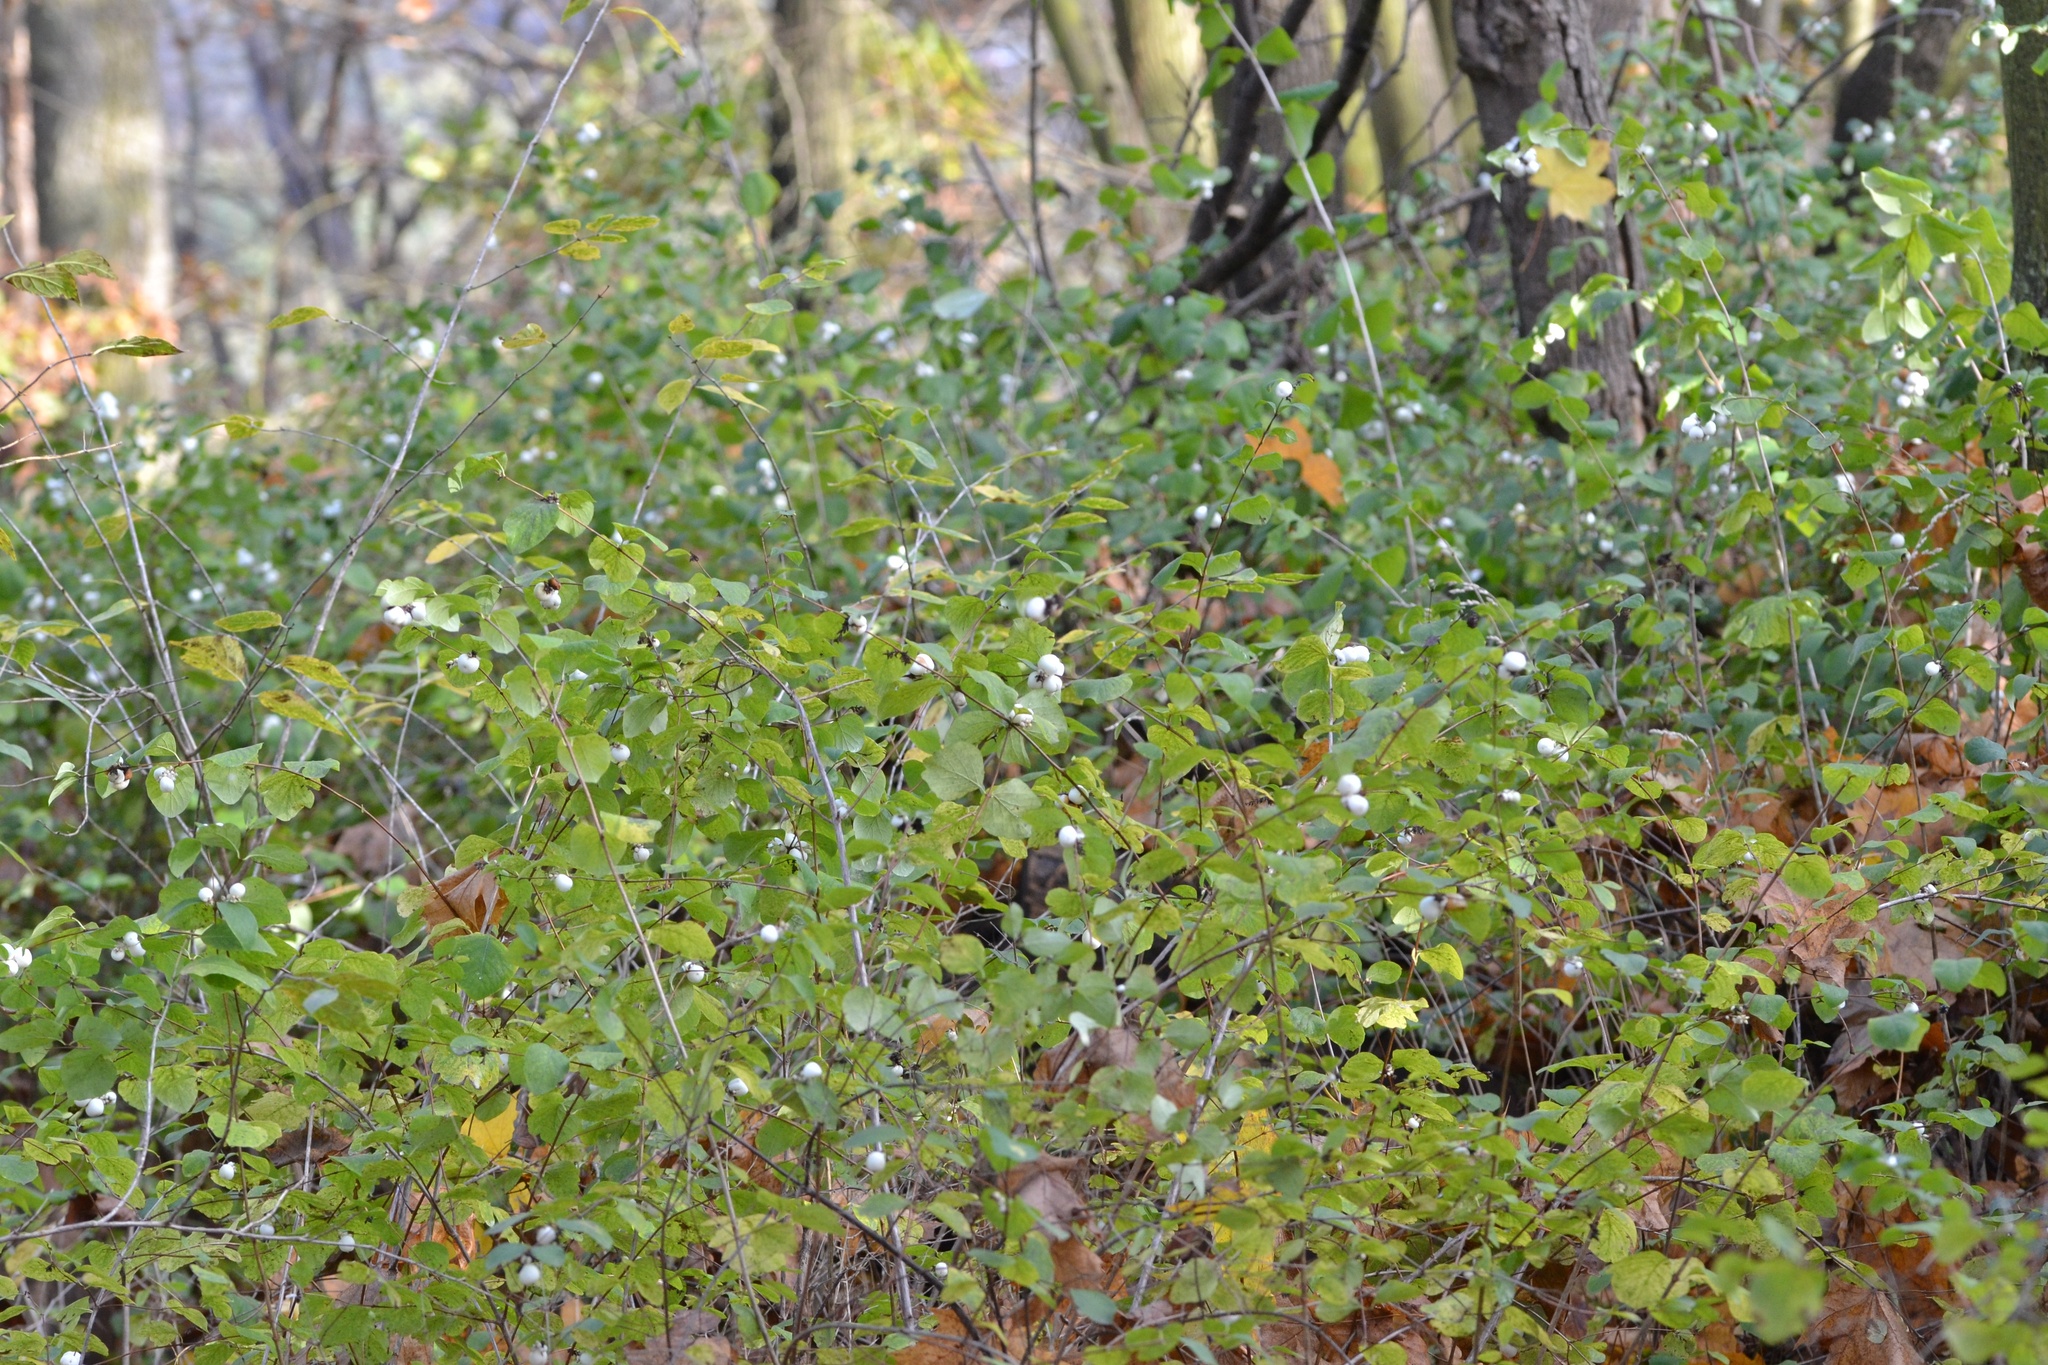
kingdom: Plantae
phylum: Tracheophyta
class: Magnoliopsida
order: Dipsacales
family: Caprifoliaceae
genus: Symphoricarpos
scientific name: Symphoricarpos albus
